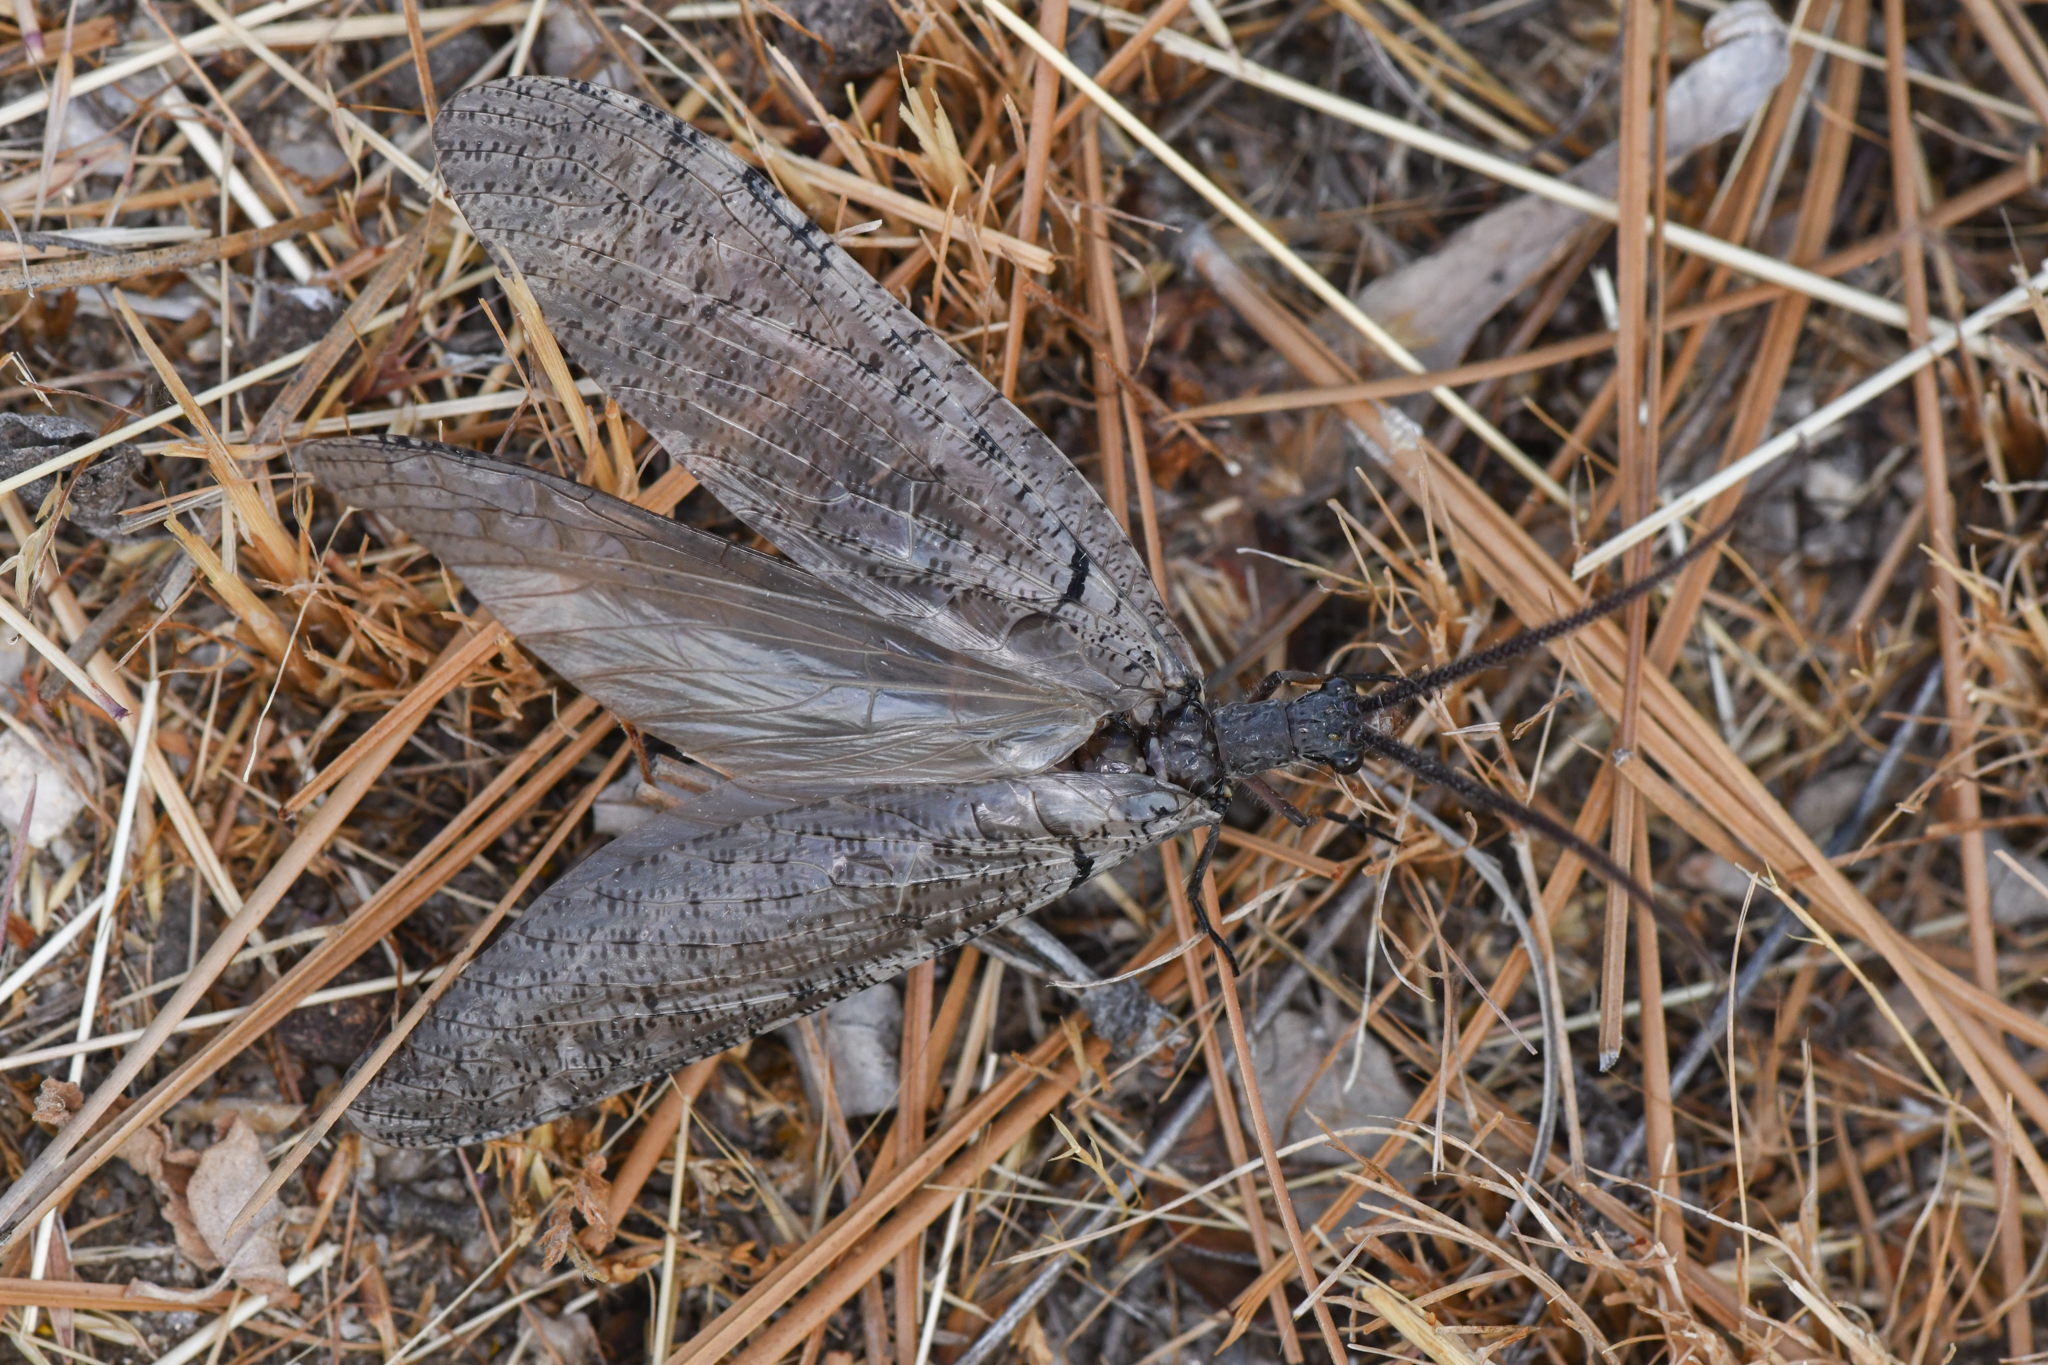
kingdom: Animalia
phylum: Arthropoda
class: Insecta
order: Megaloptera
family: Corydalidae
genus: Neohermes
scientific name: Neohermes californicus
